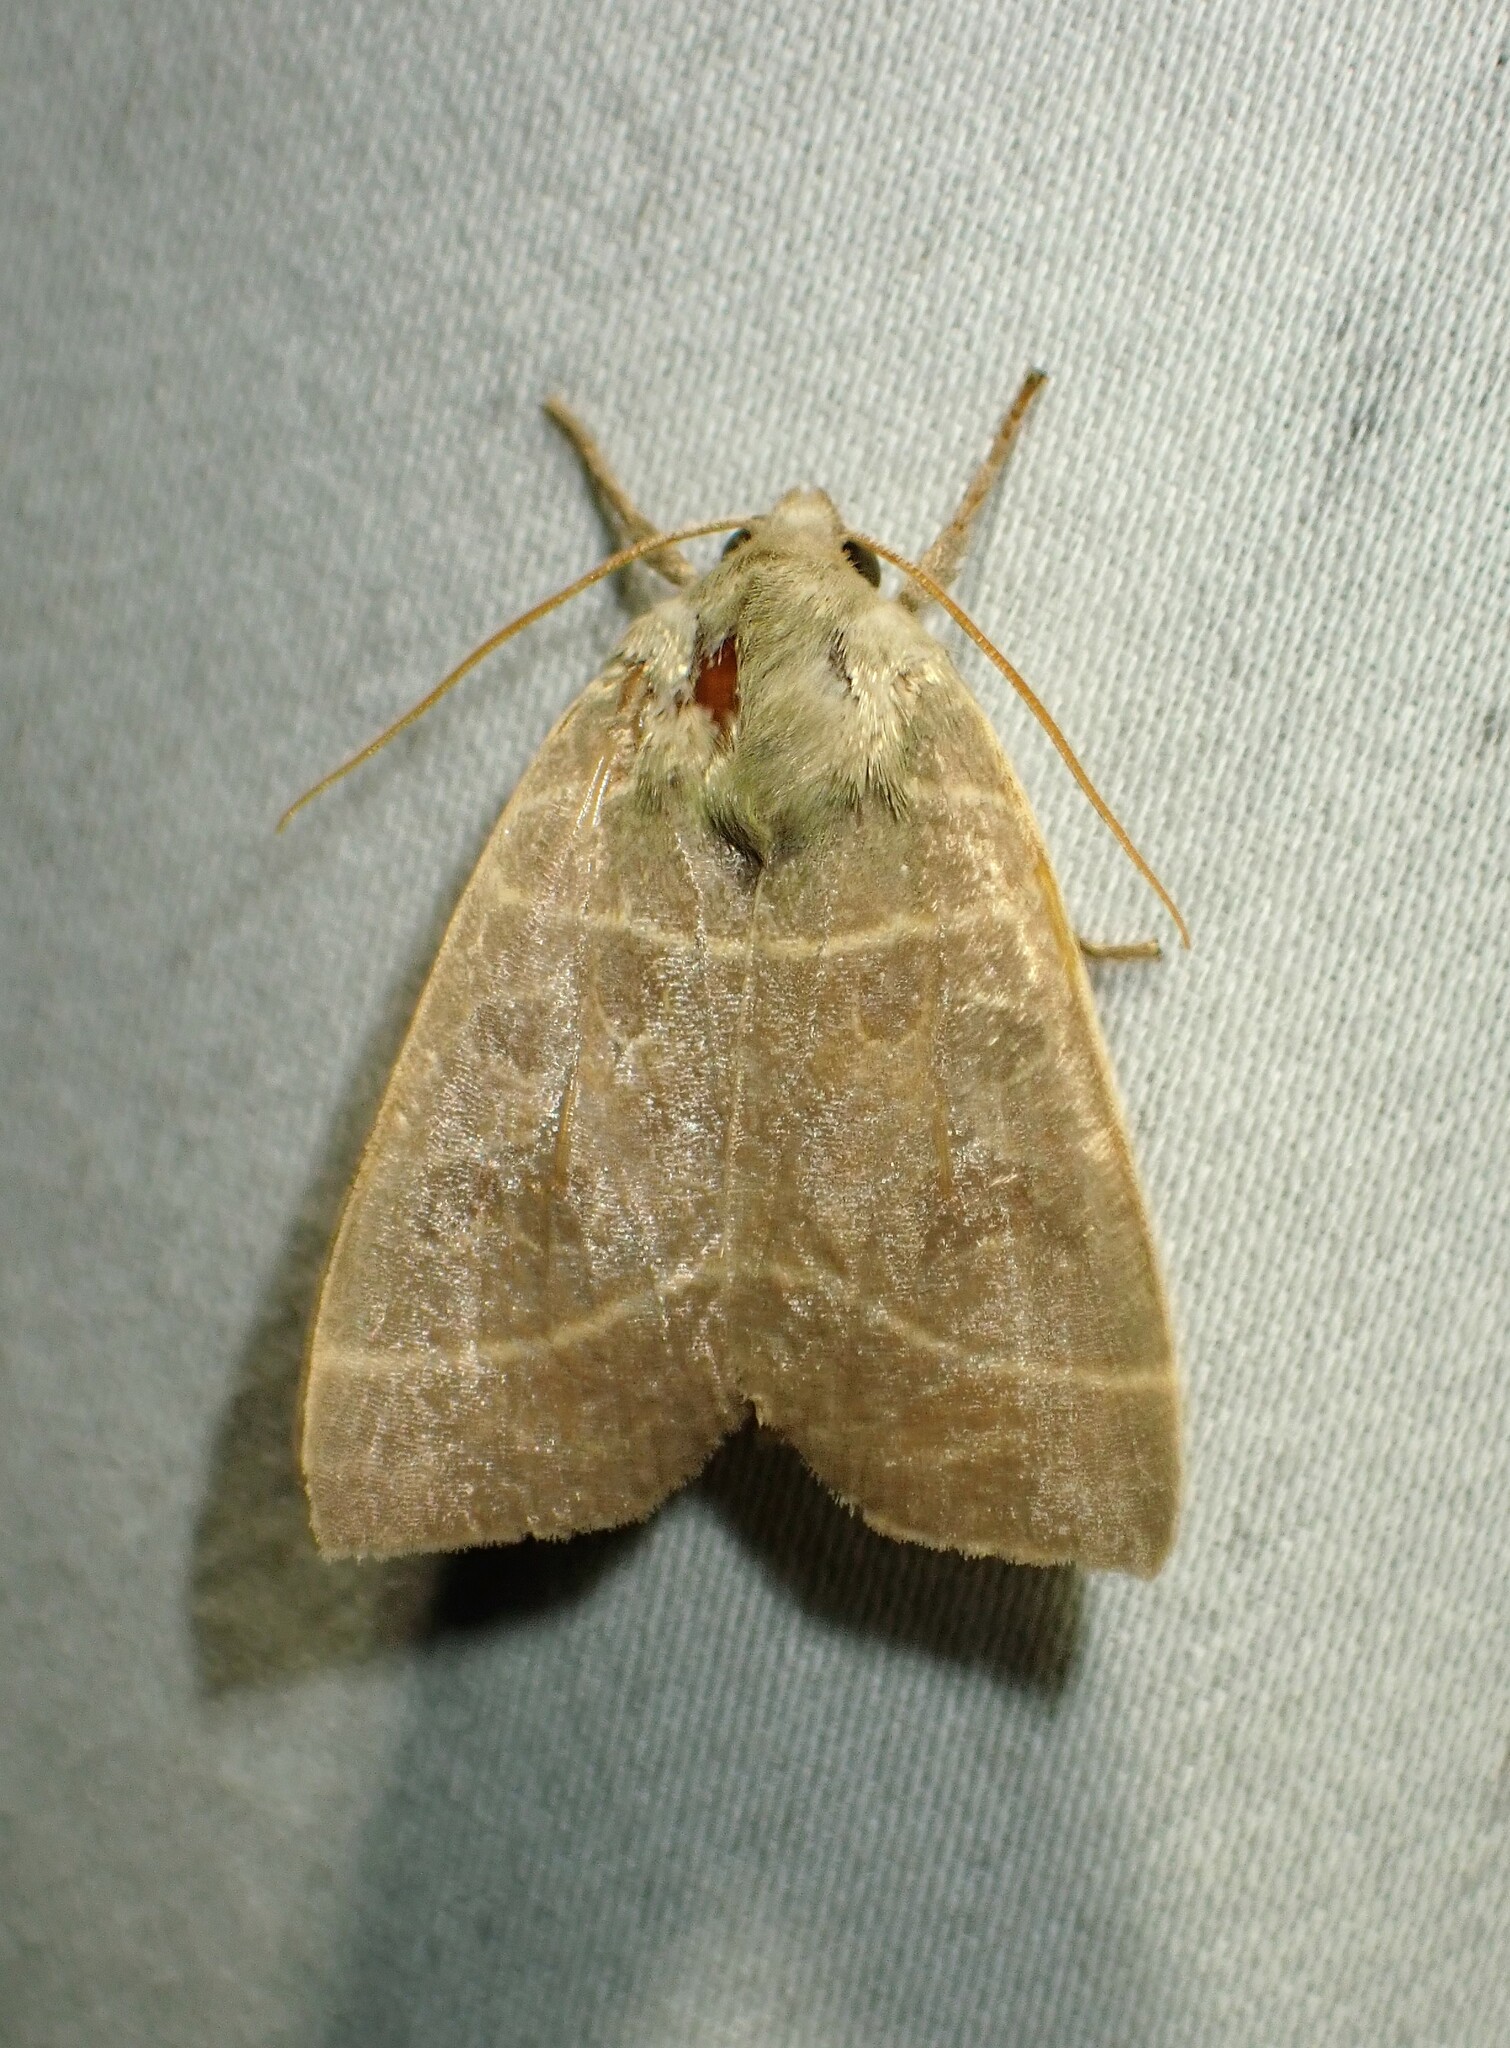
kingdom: Animalia
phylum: Arthropoda
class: Insecta
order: Lepidoptera
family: Noctuidae
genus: Ipimorpha
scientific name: Ipimorpha pleonectusa
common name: Even-lined sallow
